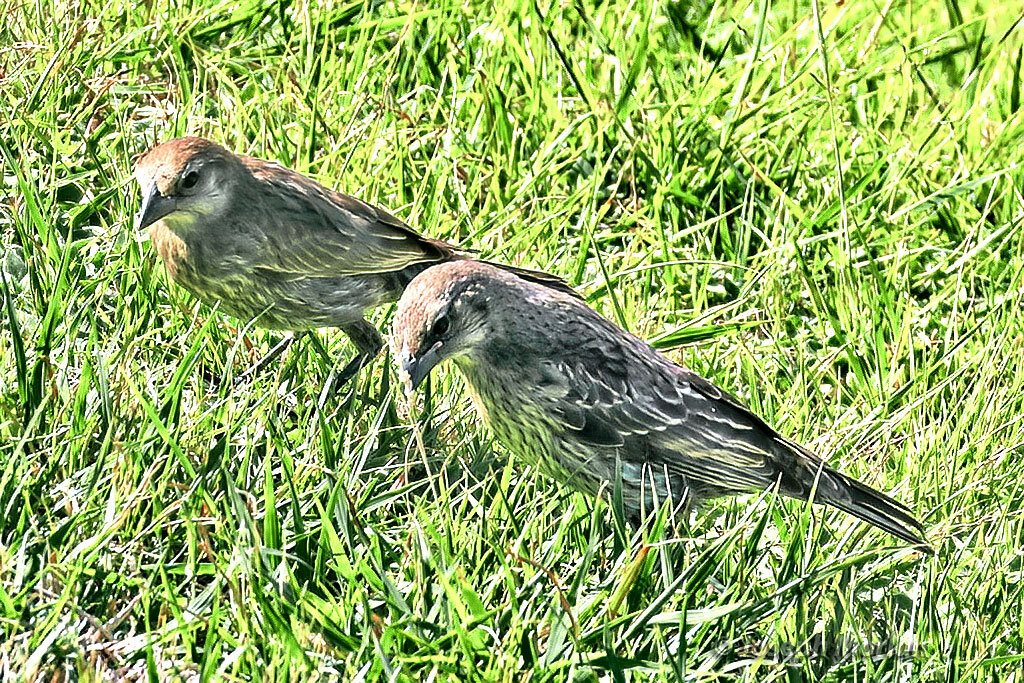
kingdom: Animalia
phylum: Chordata
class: Aves
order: Passeriformes
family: Icteridae
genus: Molothrus
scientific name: Molothrus bonariensis
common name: Shiny cowbird
